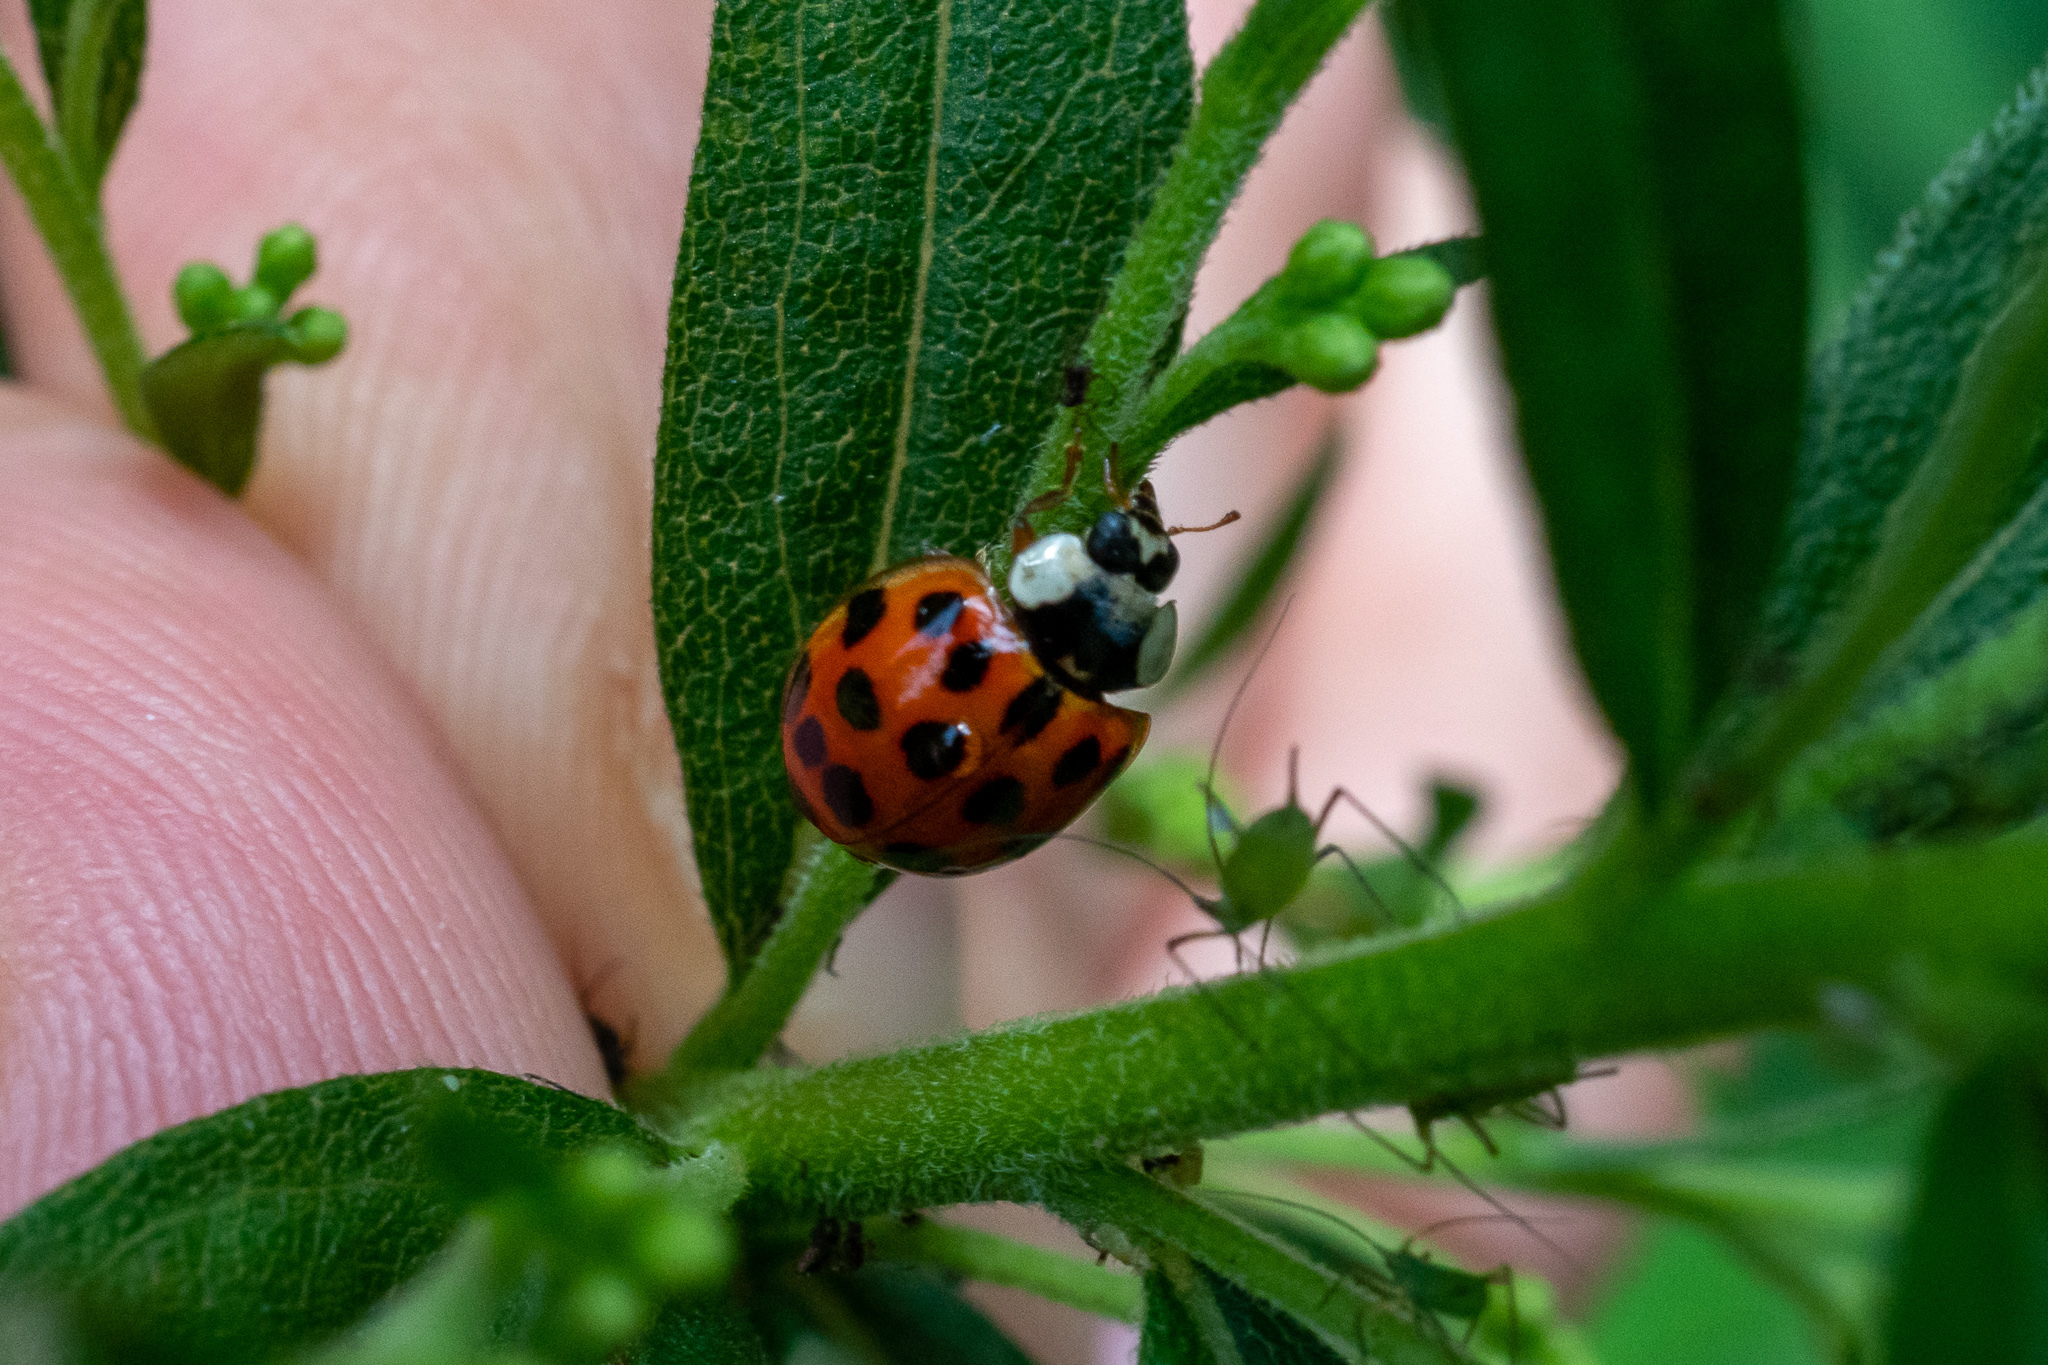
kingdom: Animalia
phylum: Arthropoda
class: Insecta
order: Coleoptera
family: Coccinellidae
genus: Harmonia
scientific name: Harmonia axyridis
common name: Harlequin ladybird
